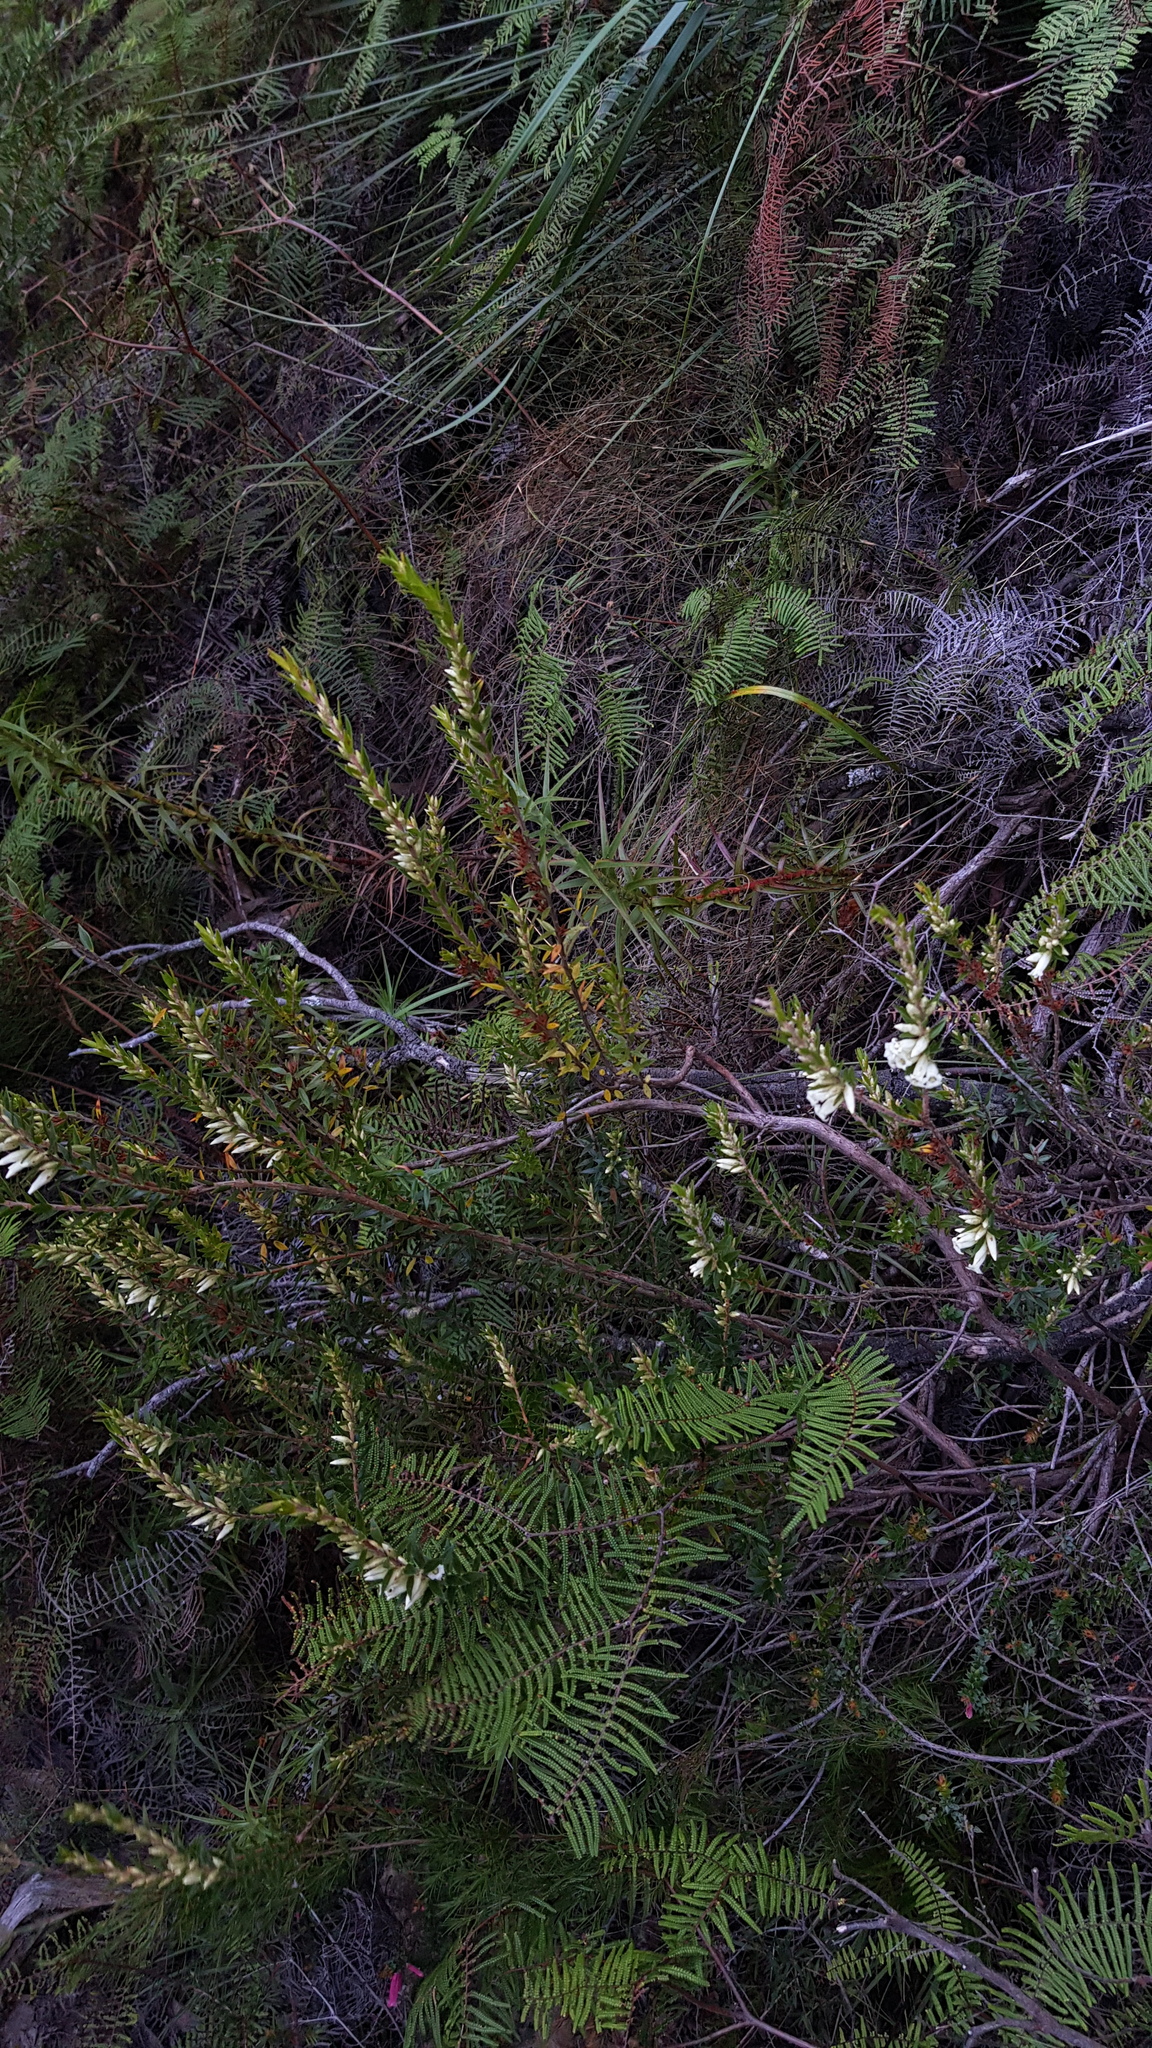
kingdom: Plantae
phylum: Tracheophyta
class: Magnoliopsida
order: Ericales
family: Ericaceae
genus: Epacris
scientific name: Epacris obtusifolia
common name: Blunt-leaf australian-heath
